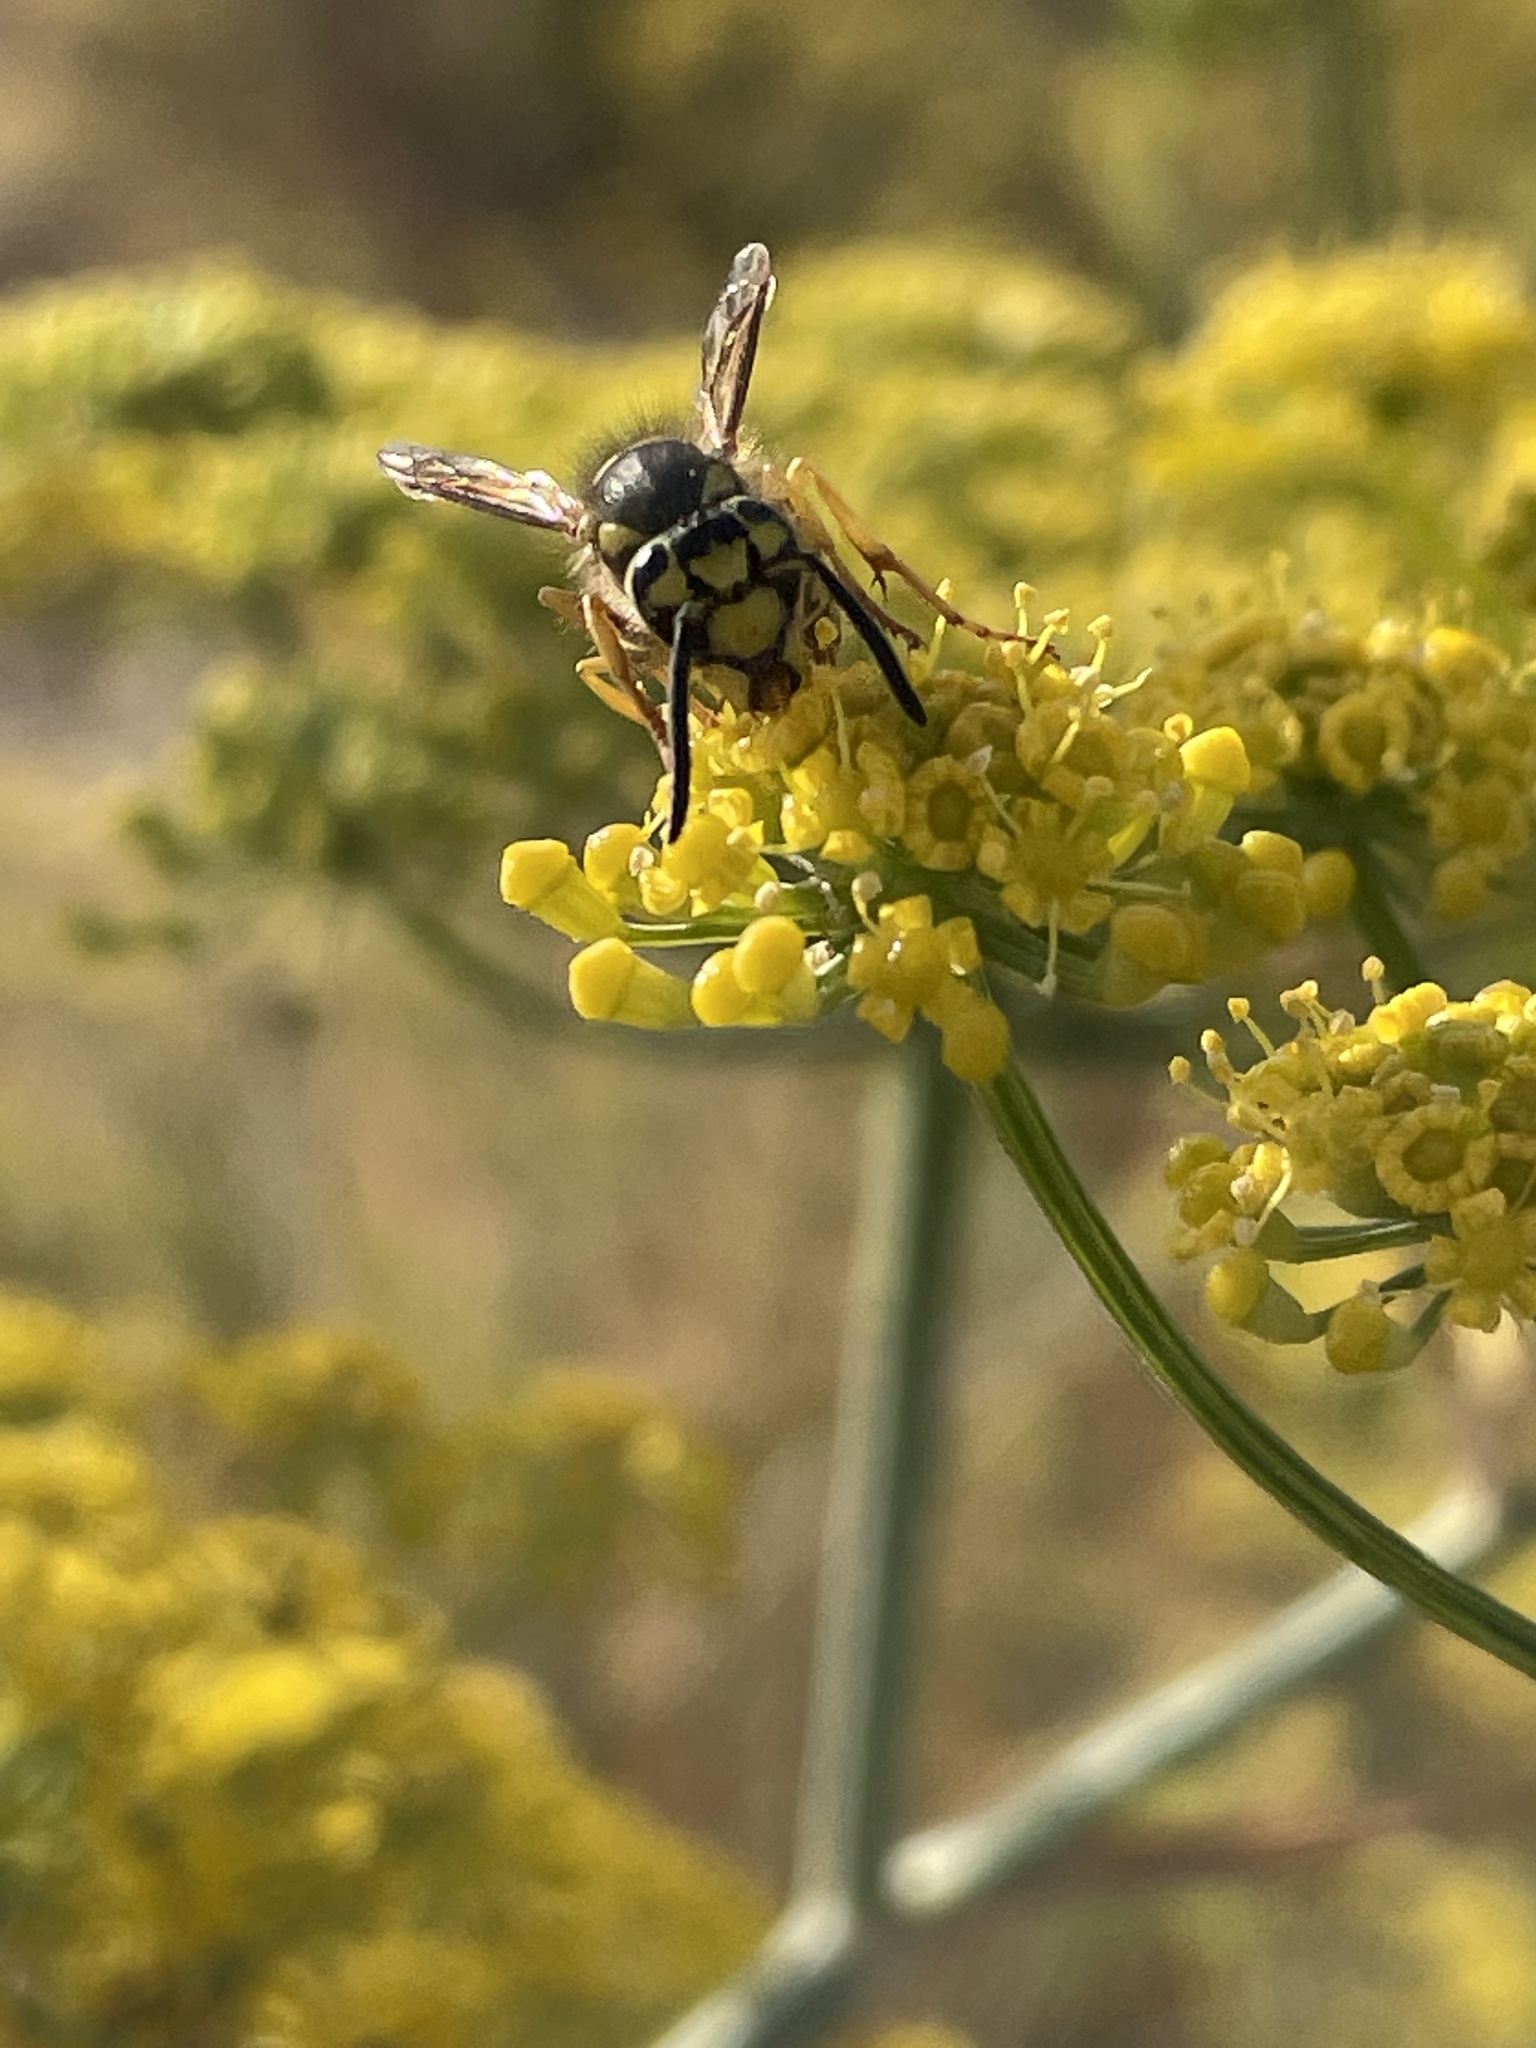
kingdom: Animalia
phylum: Arthropoda
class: Insecta
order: Hymenoptera
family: Vespidae
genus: Vespula
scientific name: Vespula pensylvanica
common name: Western yellowjacket
